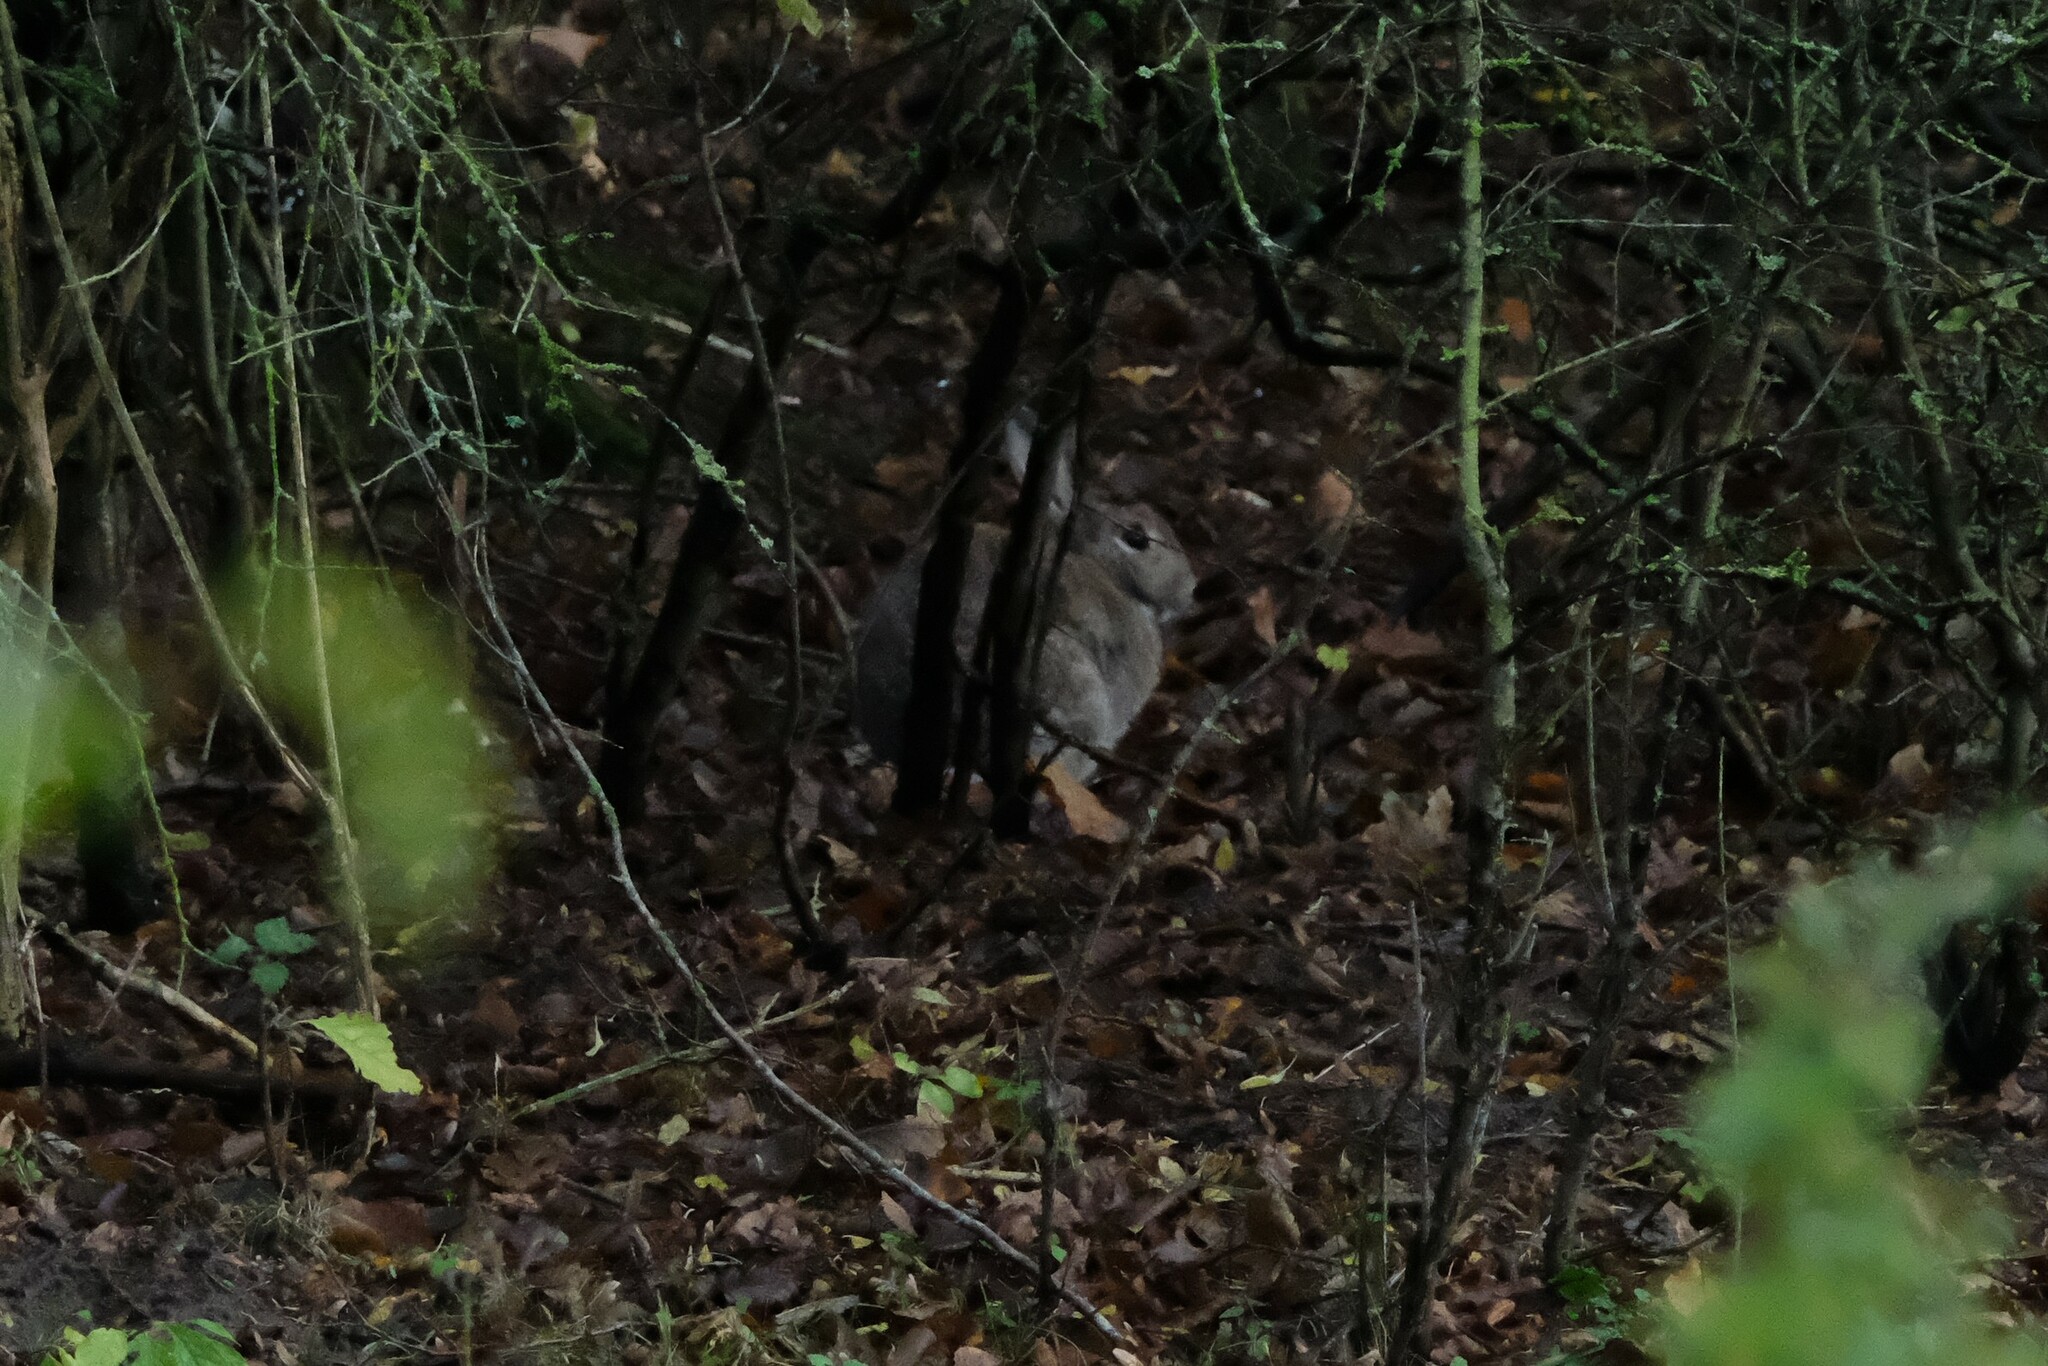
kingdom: Animalia
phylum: Chordata
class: Mammalia
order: Lagomorpha
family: Leporidae
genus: Oryctolagus
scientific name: Oryctolagus cuniculus
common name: European rabbit
